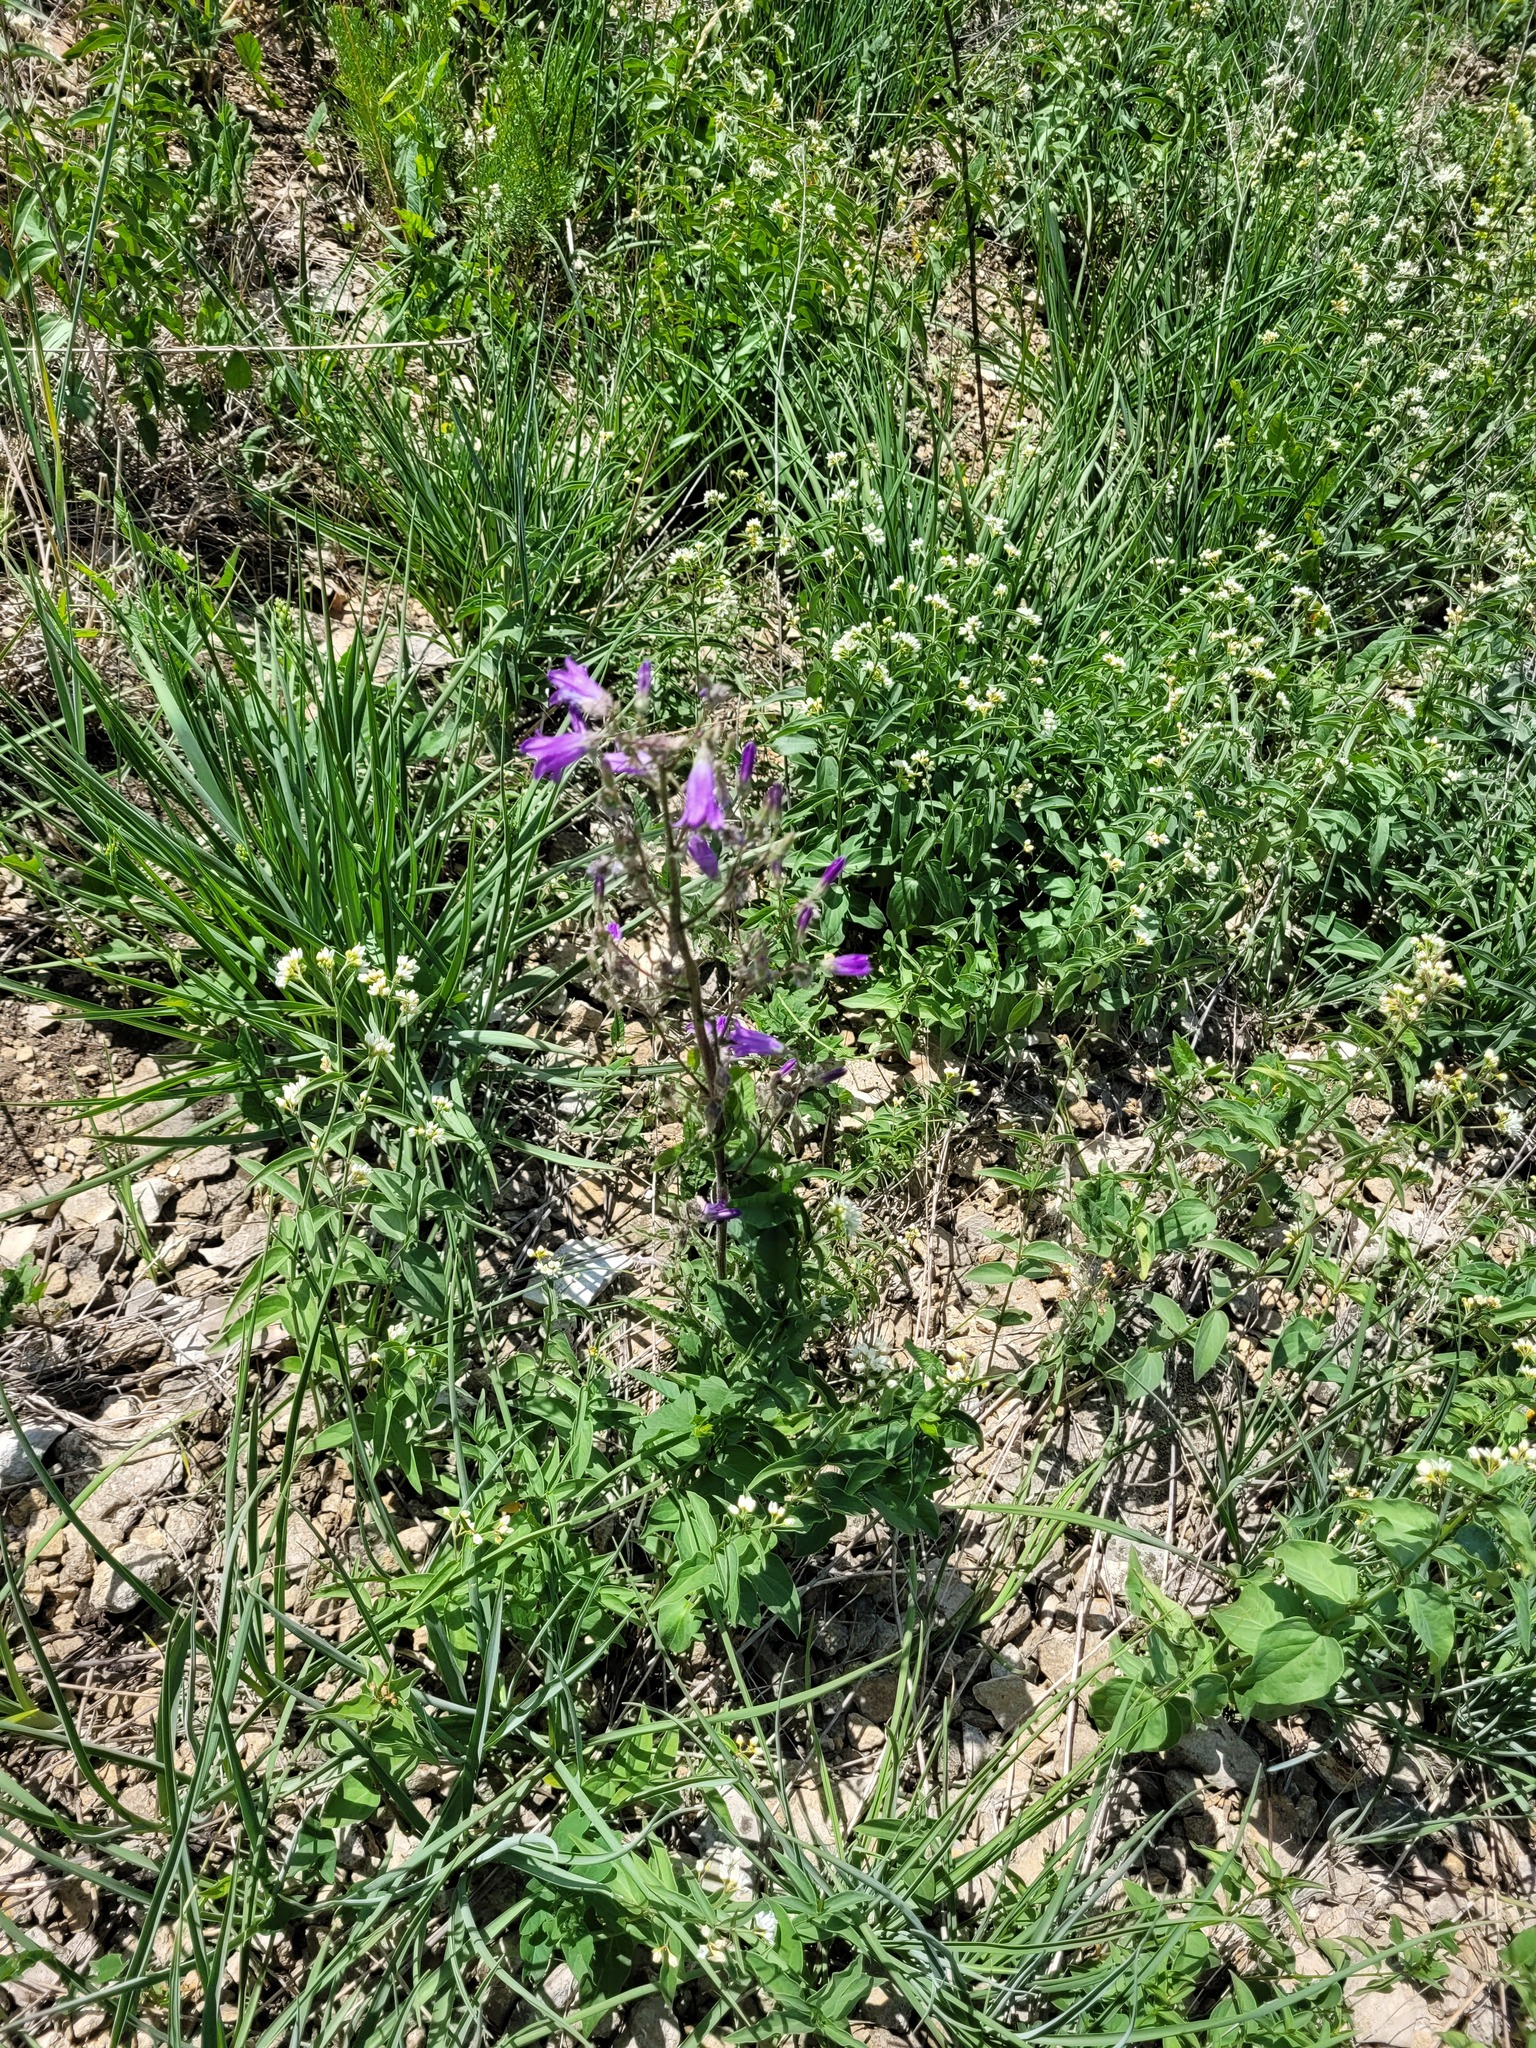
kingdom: Plantae
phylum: Tracheophyta
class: Magnoliopsida
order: Asterales
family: Campanulaceae
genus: Campanula
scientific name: Campanula sibirica
